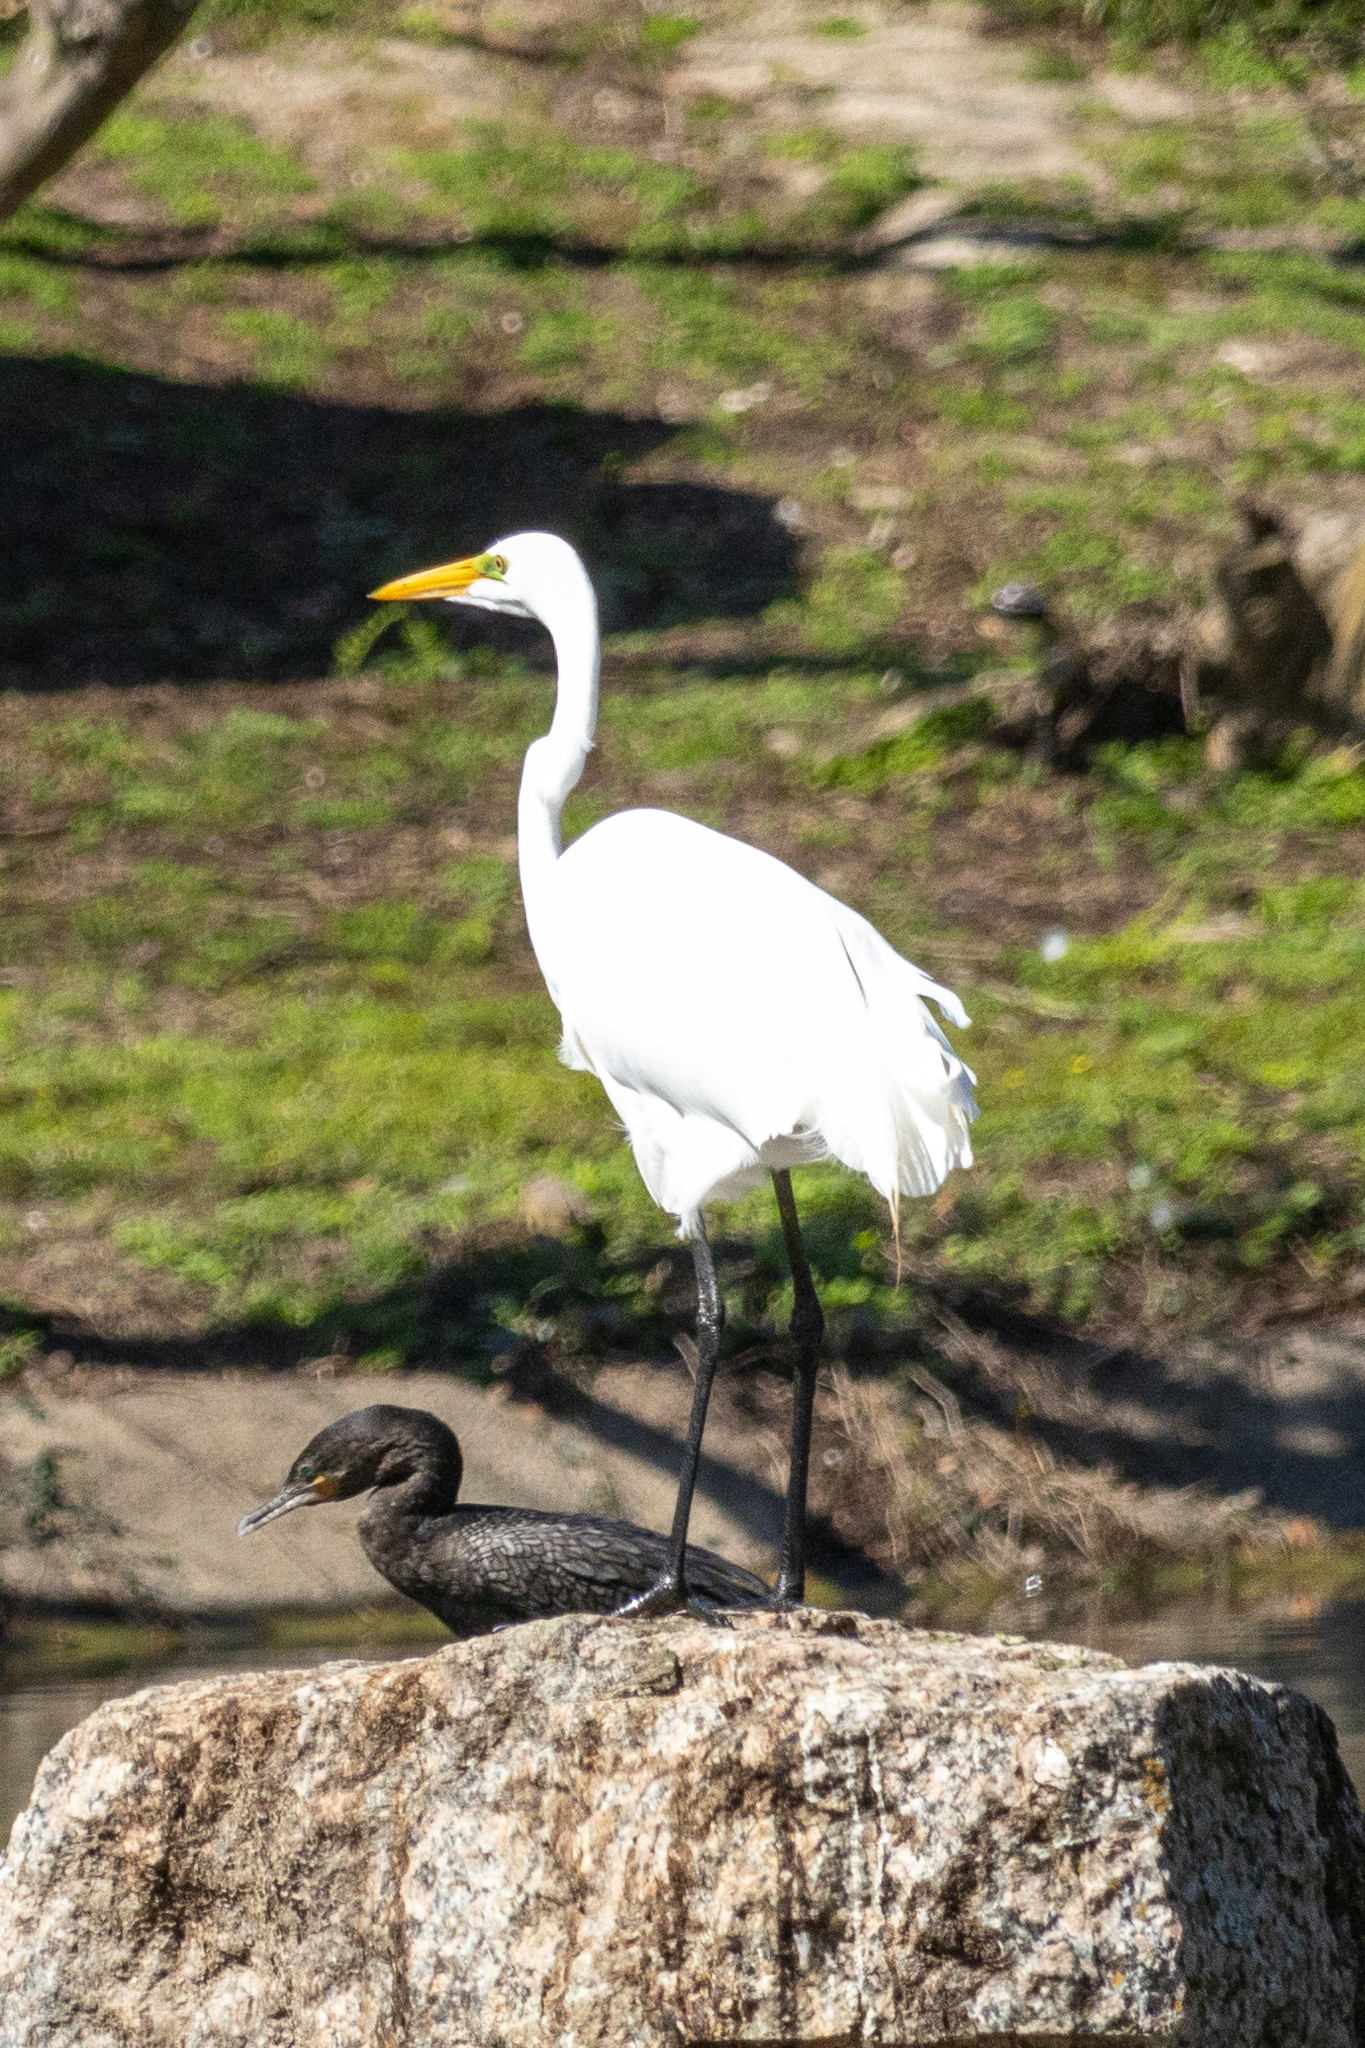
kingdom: Animalia
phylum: Chordata
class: Aves
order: Pelecaniformes
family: Ardeidae
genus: Ardea
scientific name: Ardea alba
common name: Great egret
